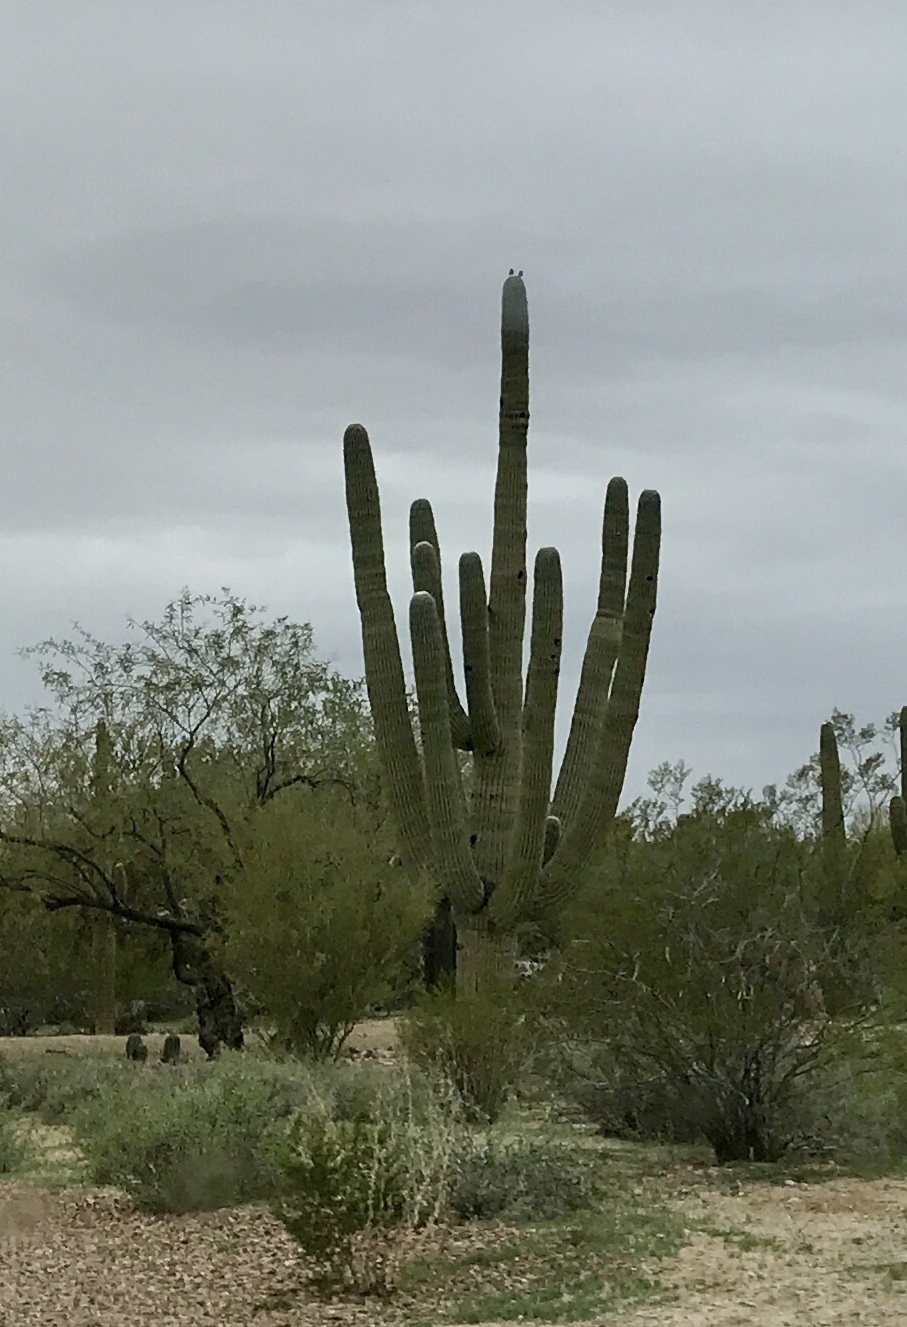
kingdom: Plantae
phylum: Tracheophyta
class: Magnoliopsida
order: Caryophyllales
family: Cactaceae
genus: Carnegiea
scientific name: Carnegiea gigantea
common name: Saguaro
